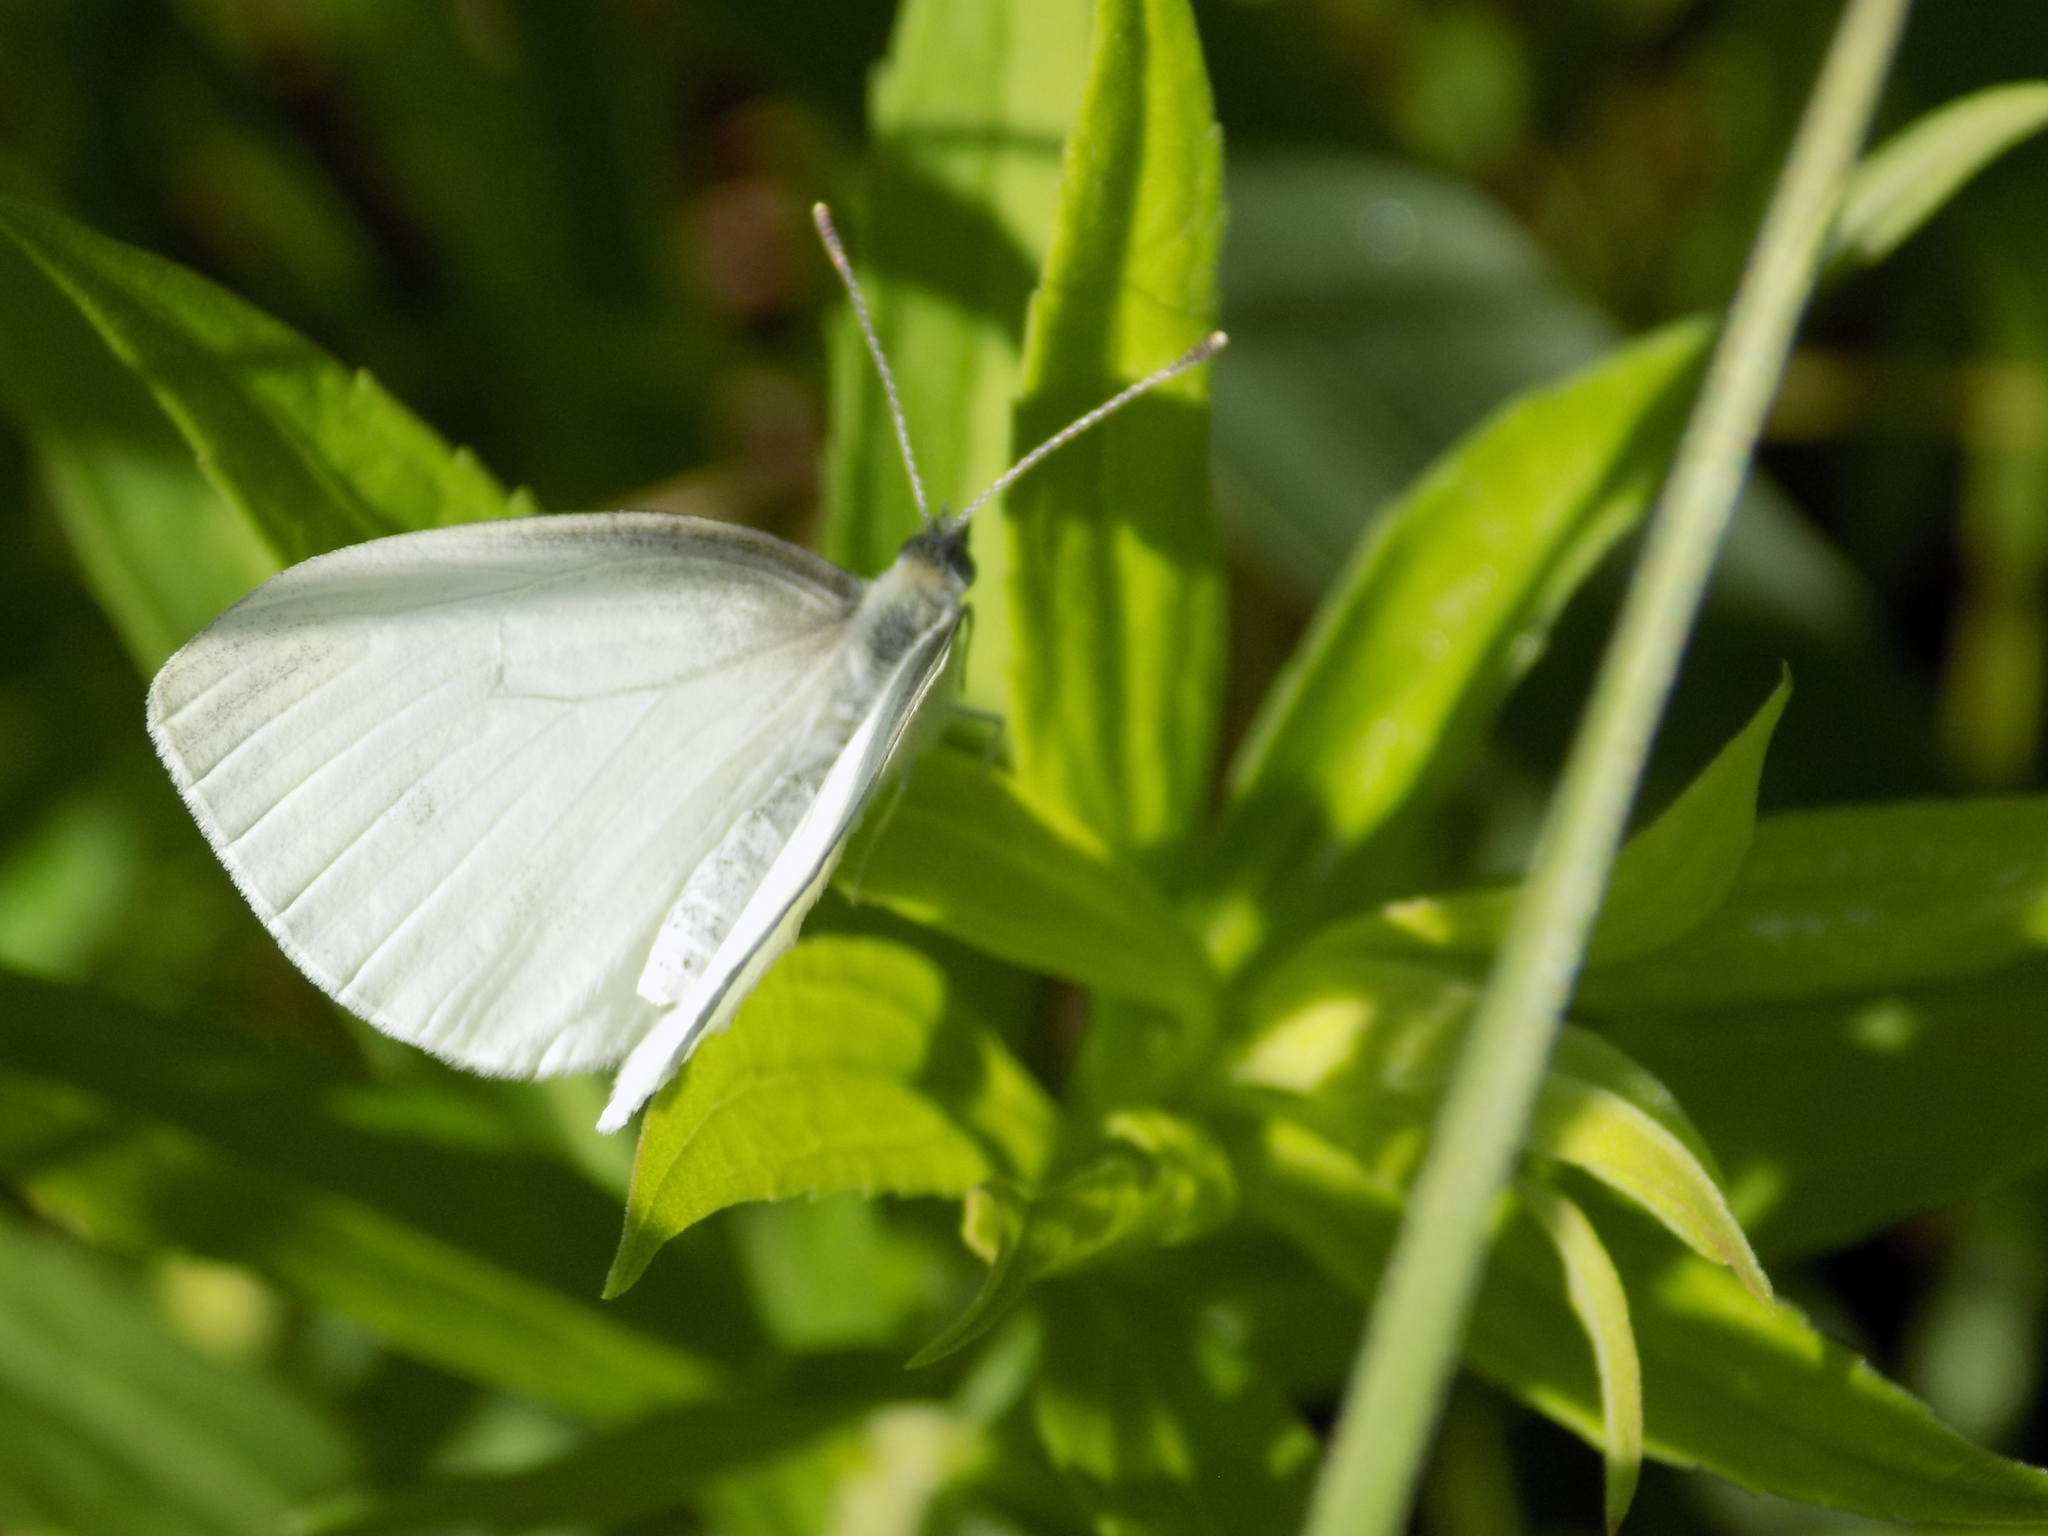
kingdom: Animalia
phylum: Arthropoda
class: Insecta
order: Lepidoptera
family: Pieridae
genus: Pieris
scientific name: Pieris oleracea
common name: Mustard white
